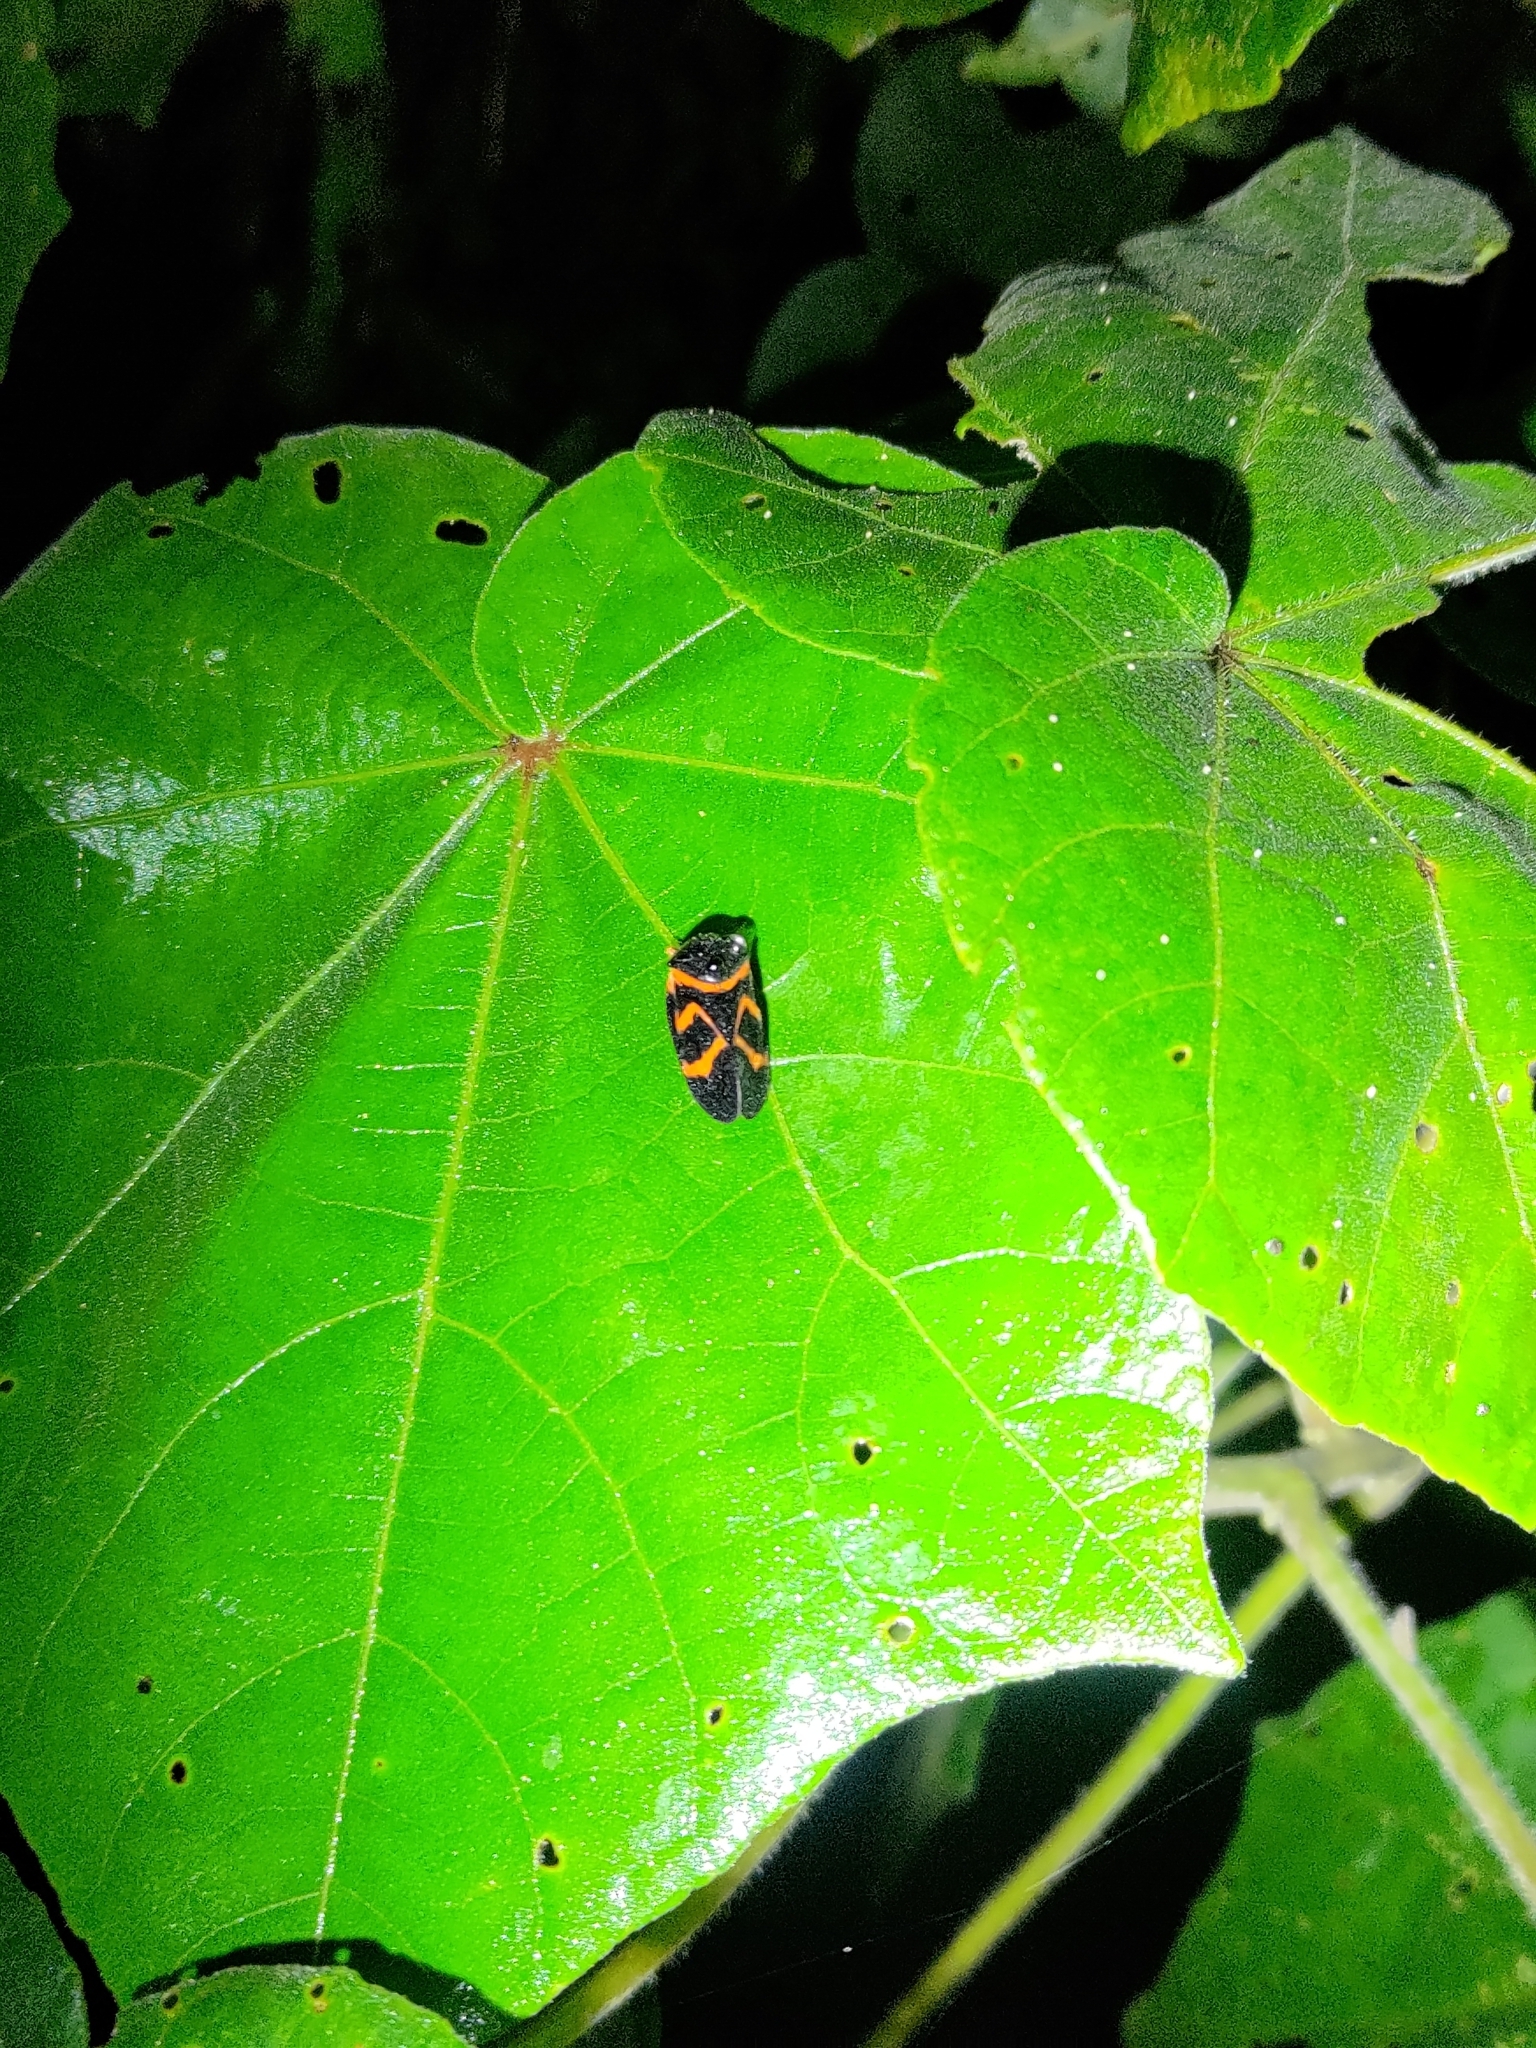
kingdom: Animalia
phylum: Arthropoda
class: Insecta
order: Hemiptera
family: Cercopidae
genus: Okiscarta
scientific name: Okiscarta uchidae
